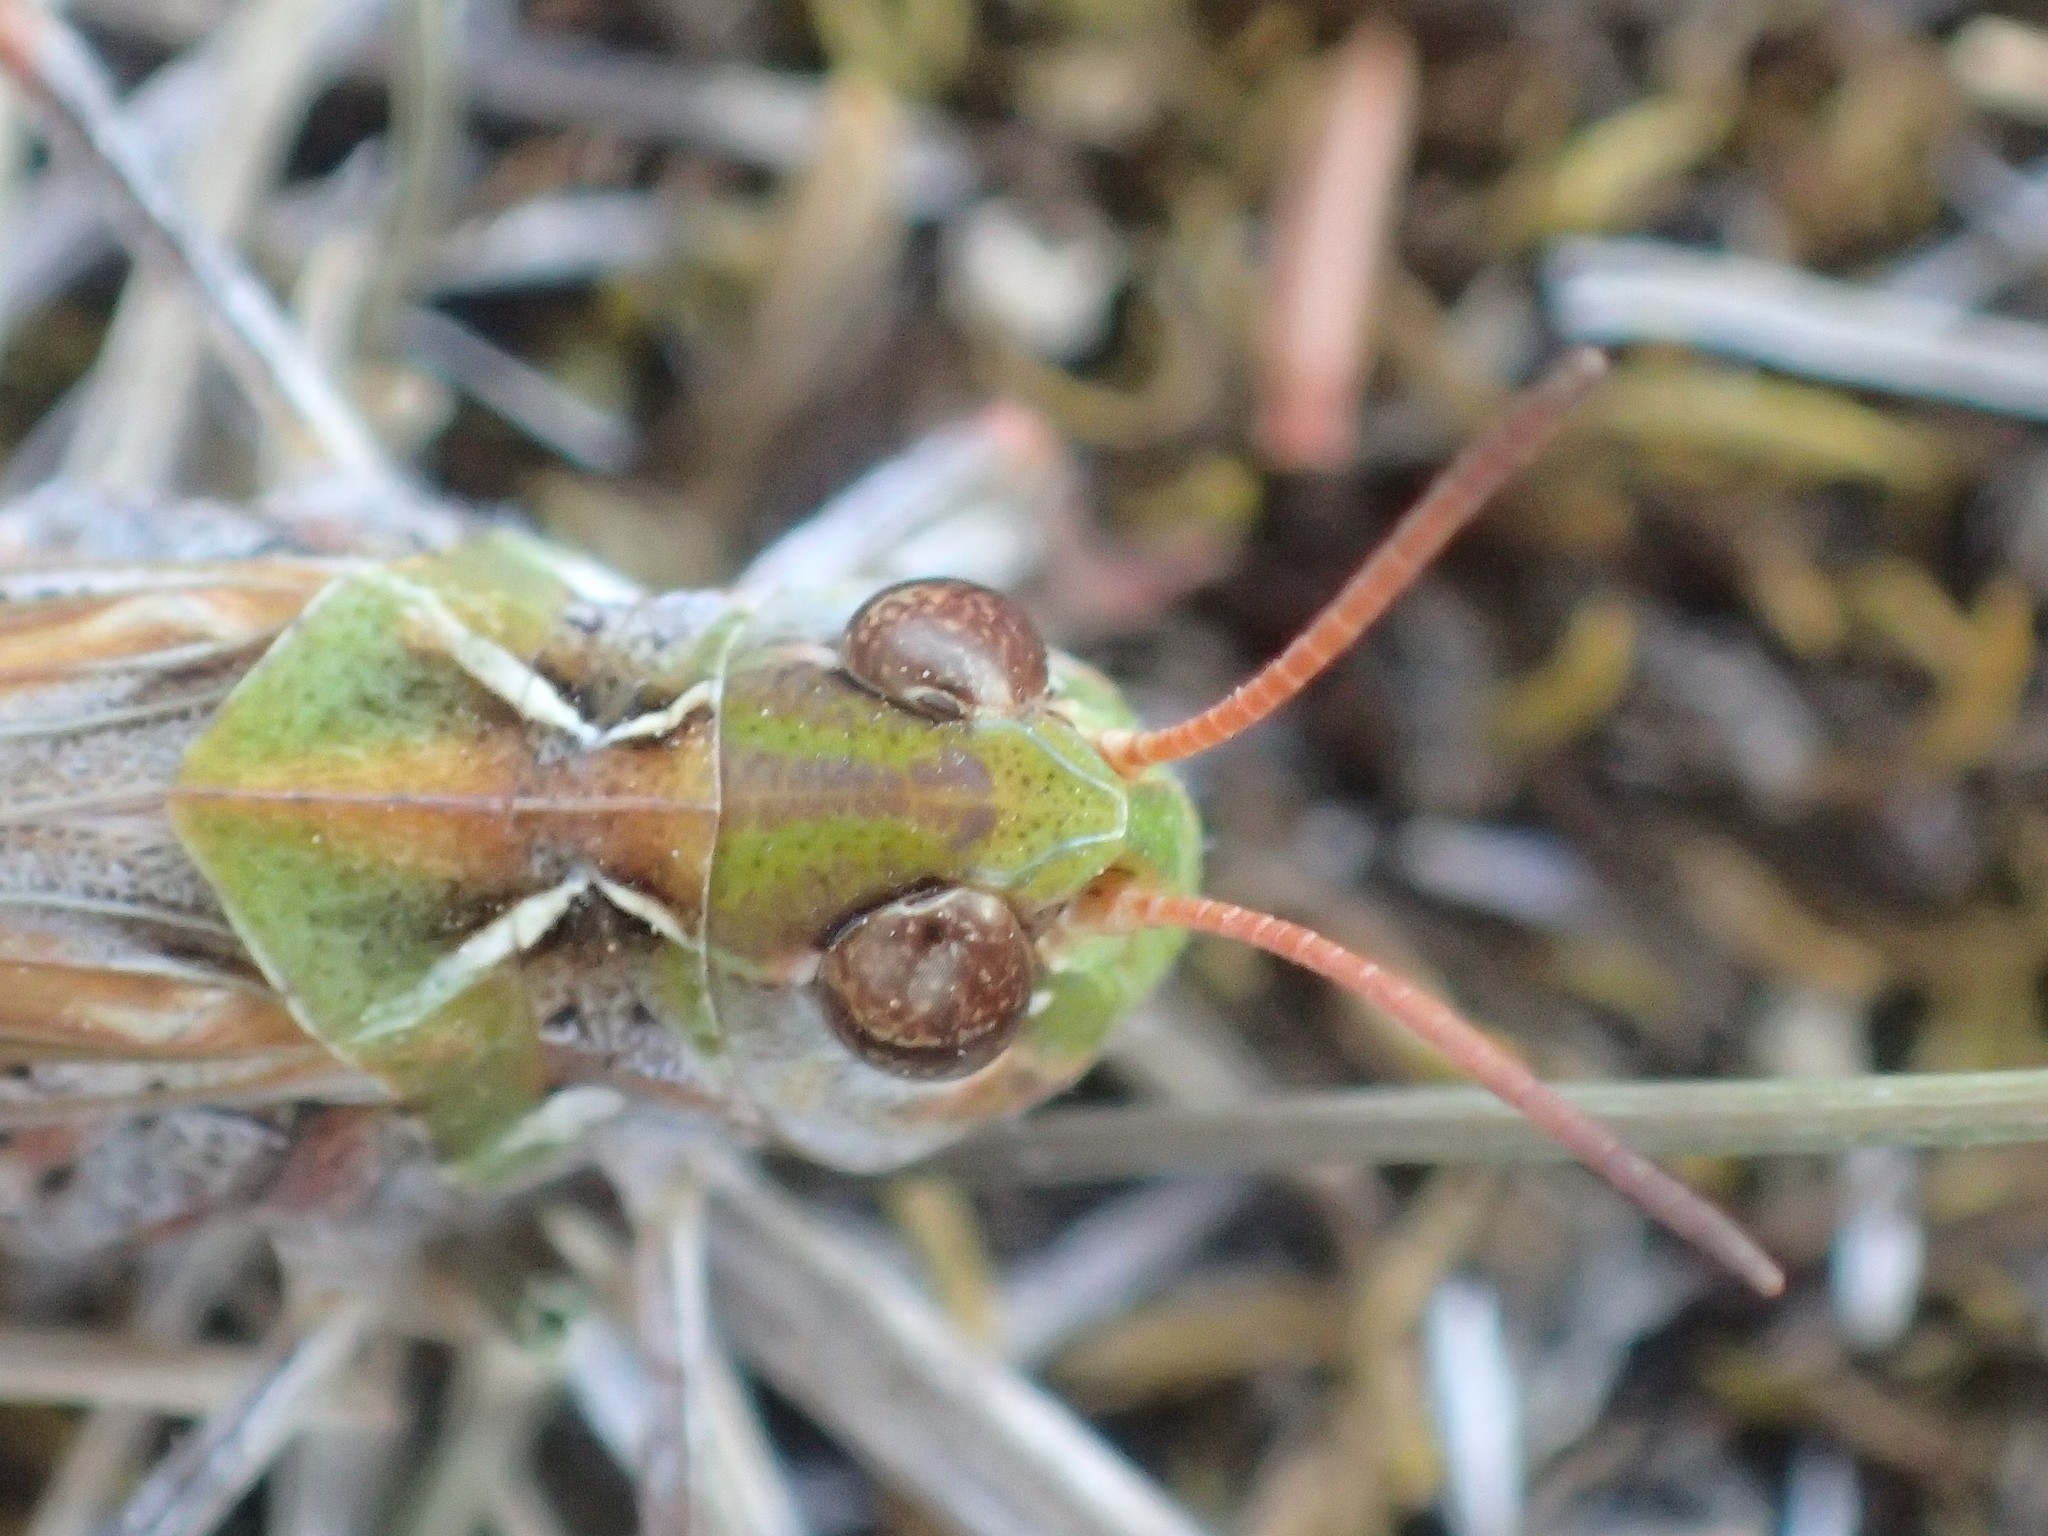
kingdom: Animalia
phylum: Arthropoda
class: Insecta
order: Orthoptera
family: Acrididae
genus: Austroicetes
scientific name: Austroicetes vulgaris
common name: Southeastern austroicetes
